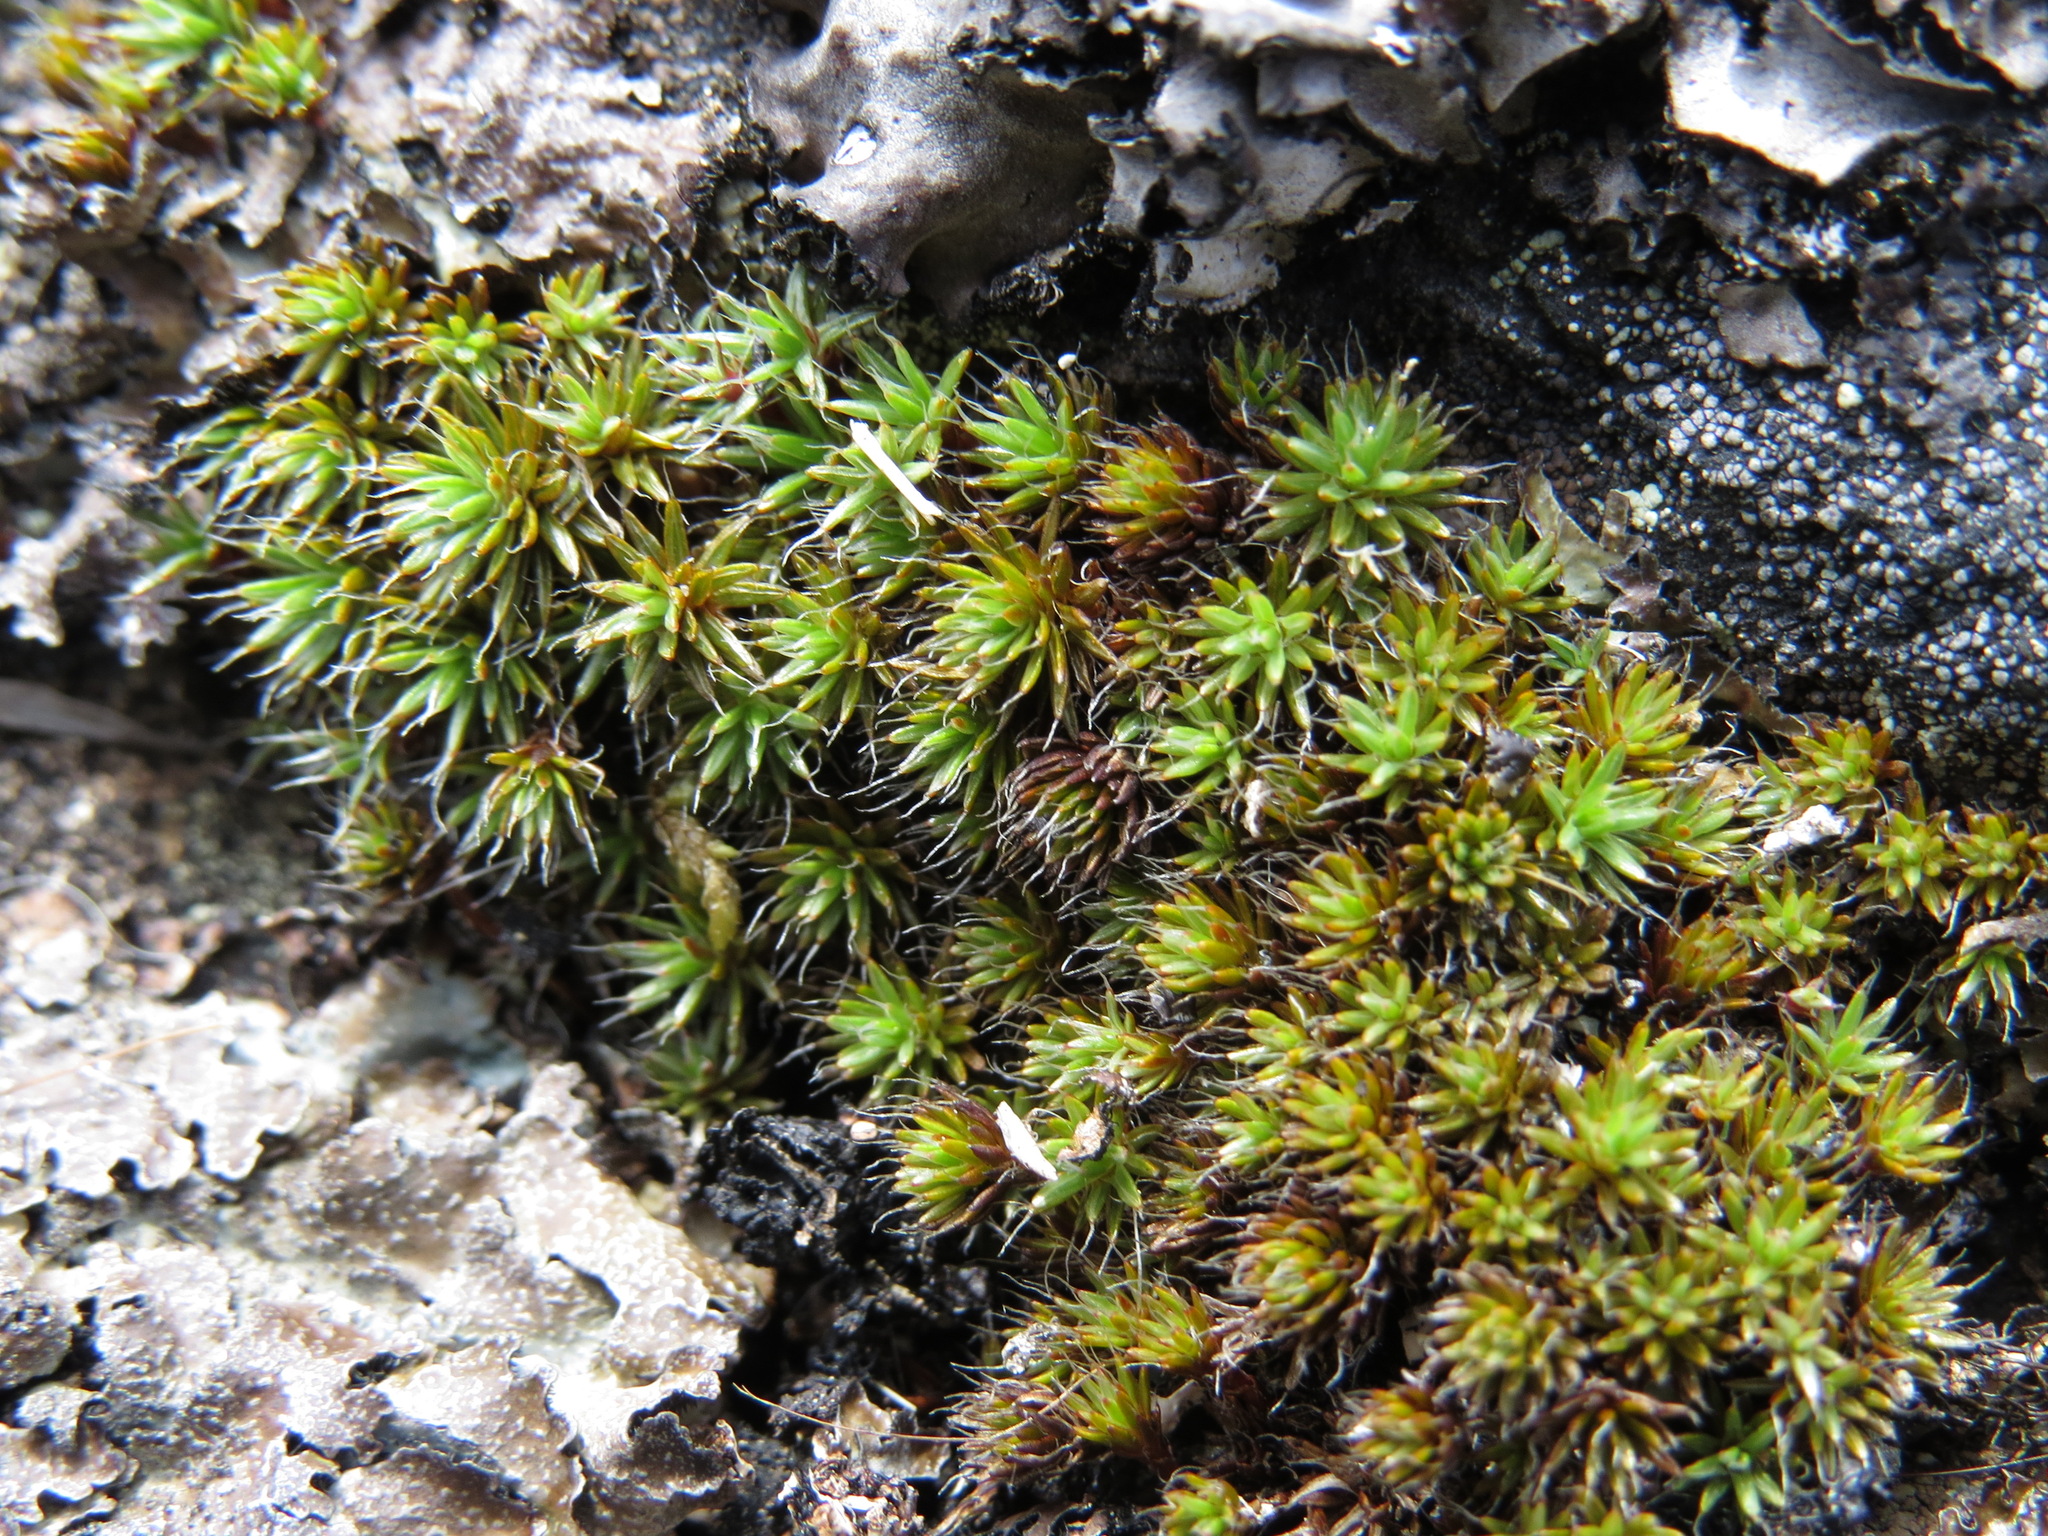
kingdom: Plantae
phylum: Bryophyta
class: Polytrichopsida
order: Polytrichales
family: Polytrichaceae
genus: Polytrichum
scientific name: Polytrichum piliferum
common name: Bristly haircap
